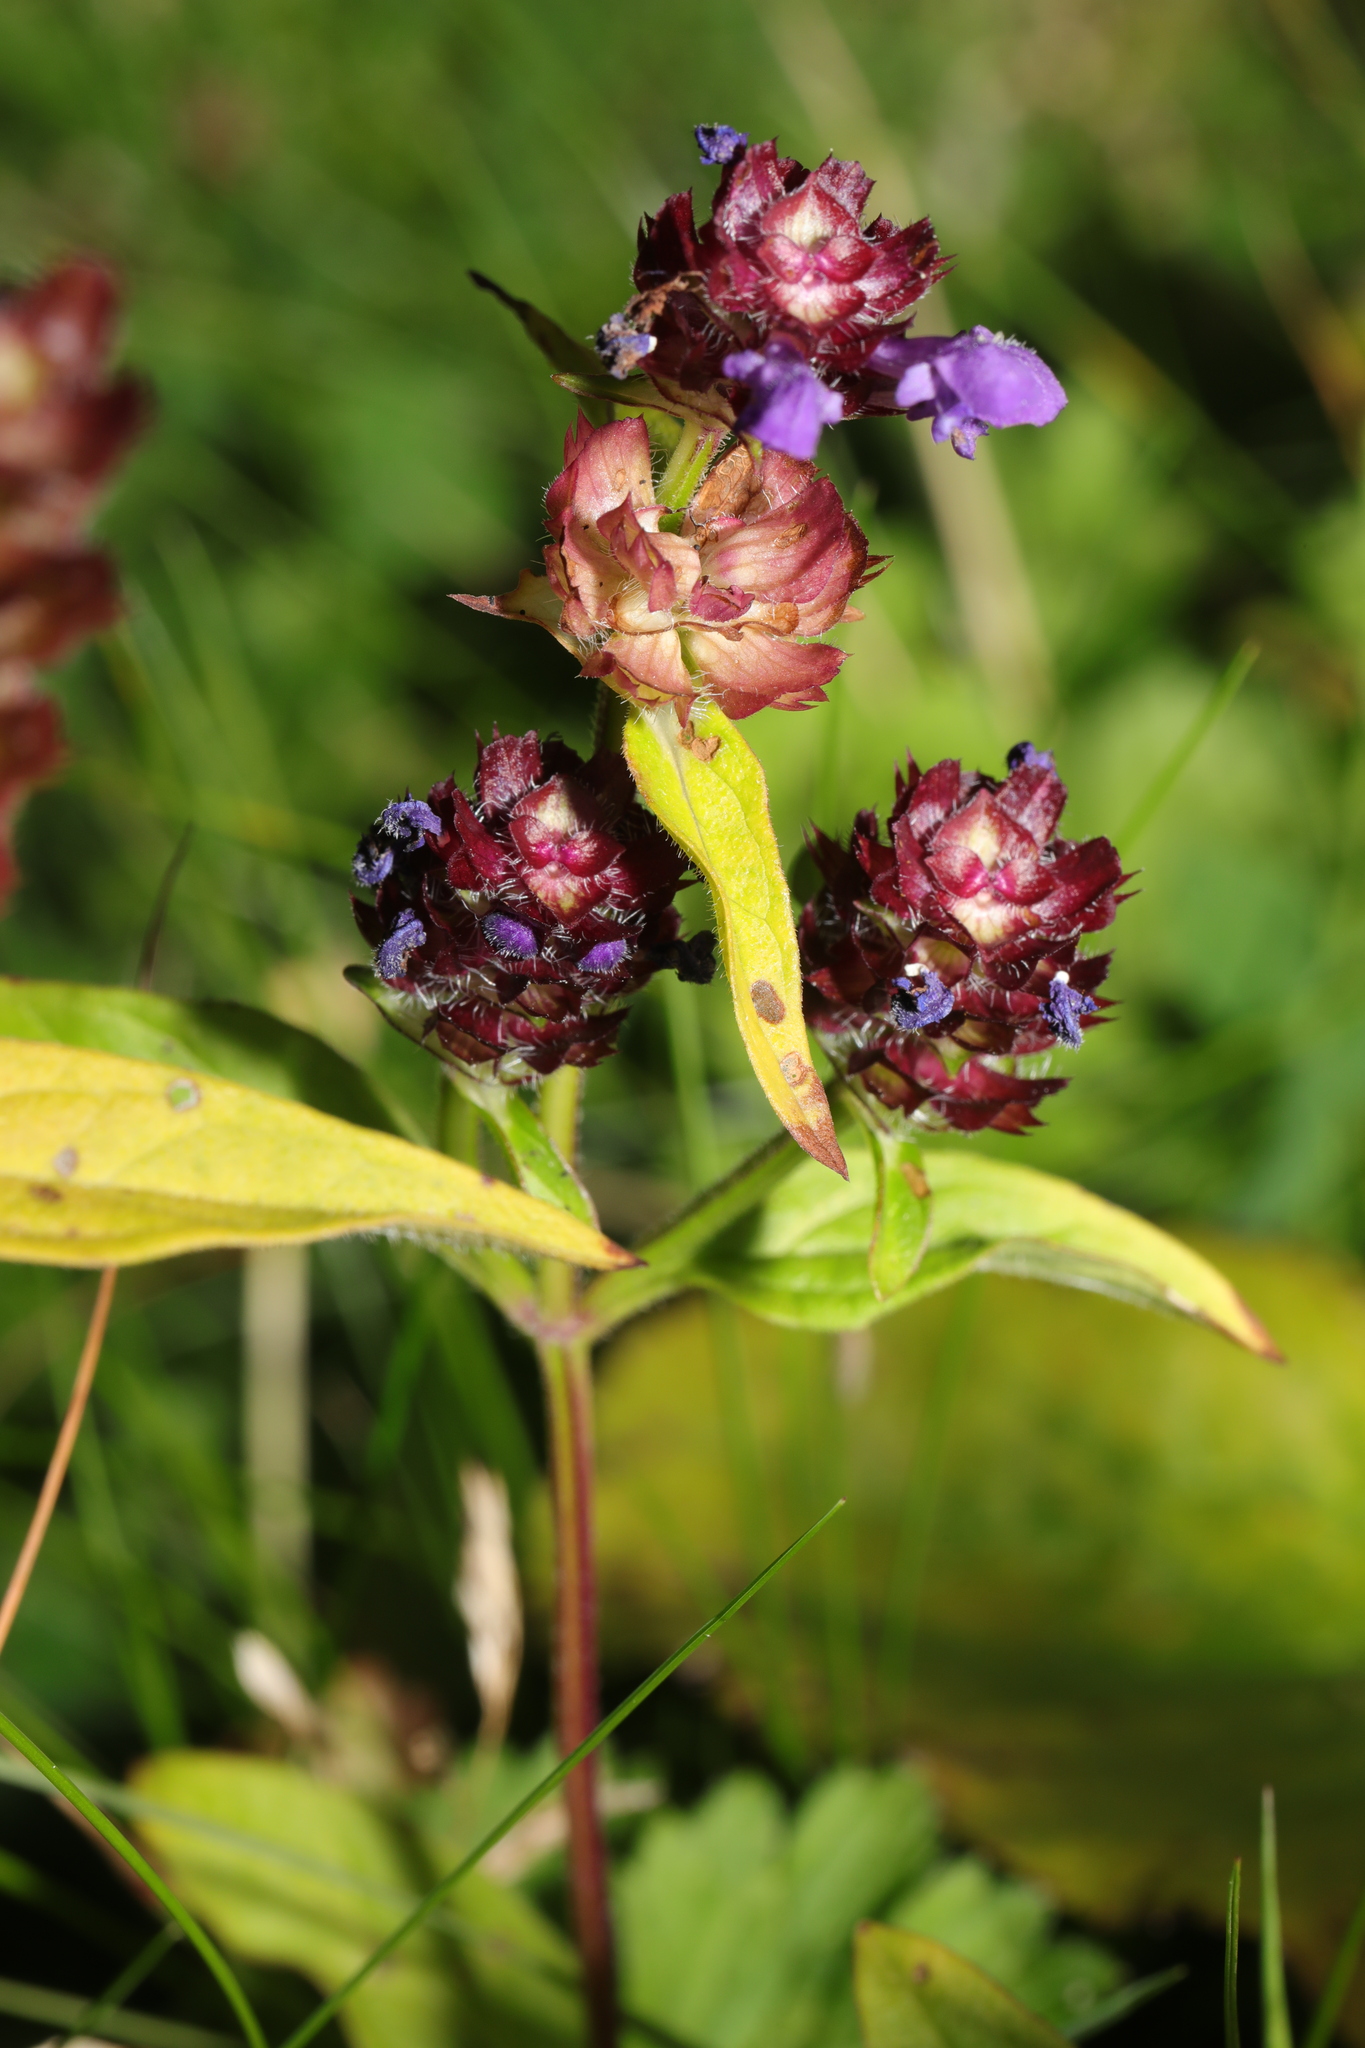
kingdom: Plantae
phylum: Tracheophyta
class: Magnoliopsida
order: Lamiales
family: Lamiaceae
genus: Prunella
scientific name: Prunella vulgaris
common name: Heal-all
